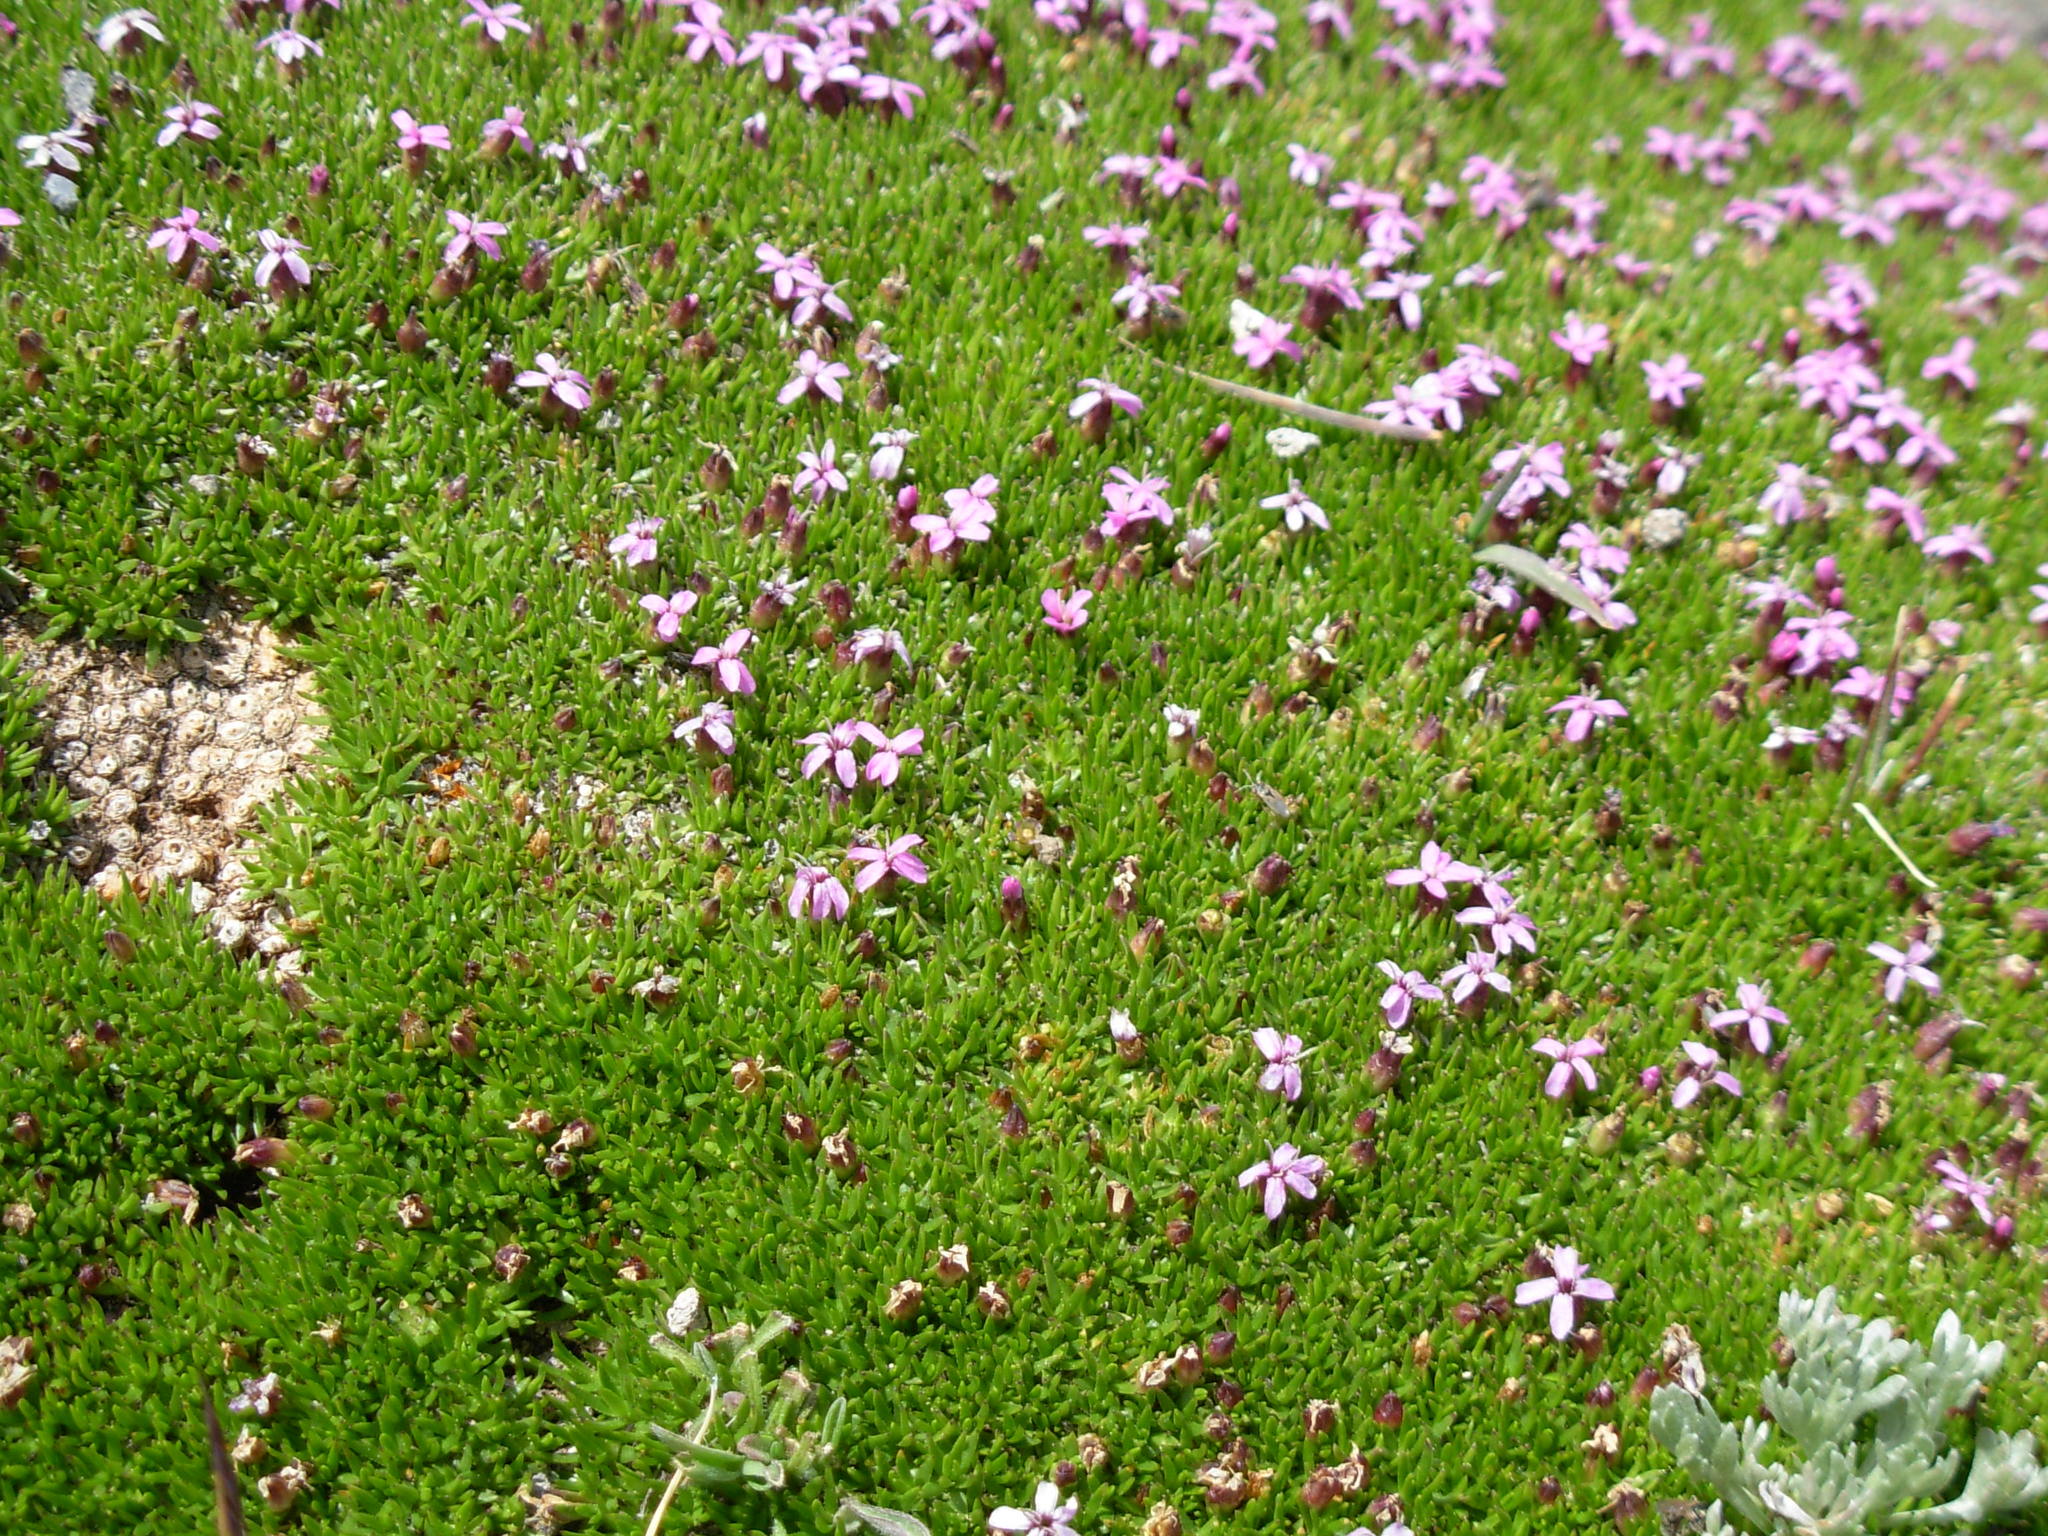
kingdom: Plantae
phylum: Tracheophyta
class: Magnoliopsida
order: Caryophyllales
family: Caryophyllaceae
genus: Silene
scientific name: Silene acaulis
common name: Moss campion
